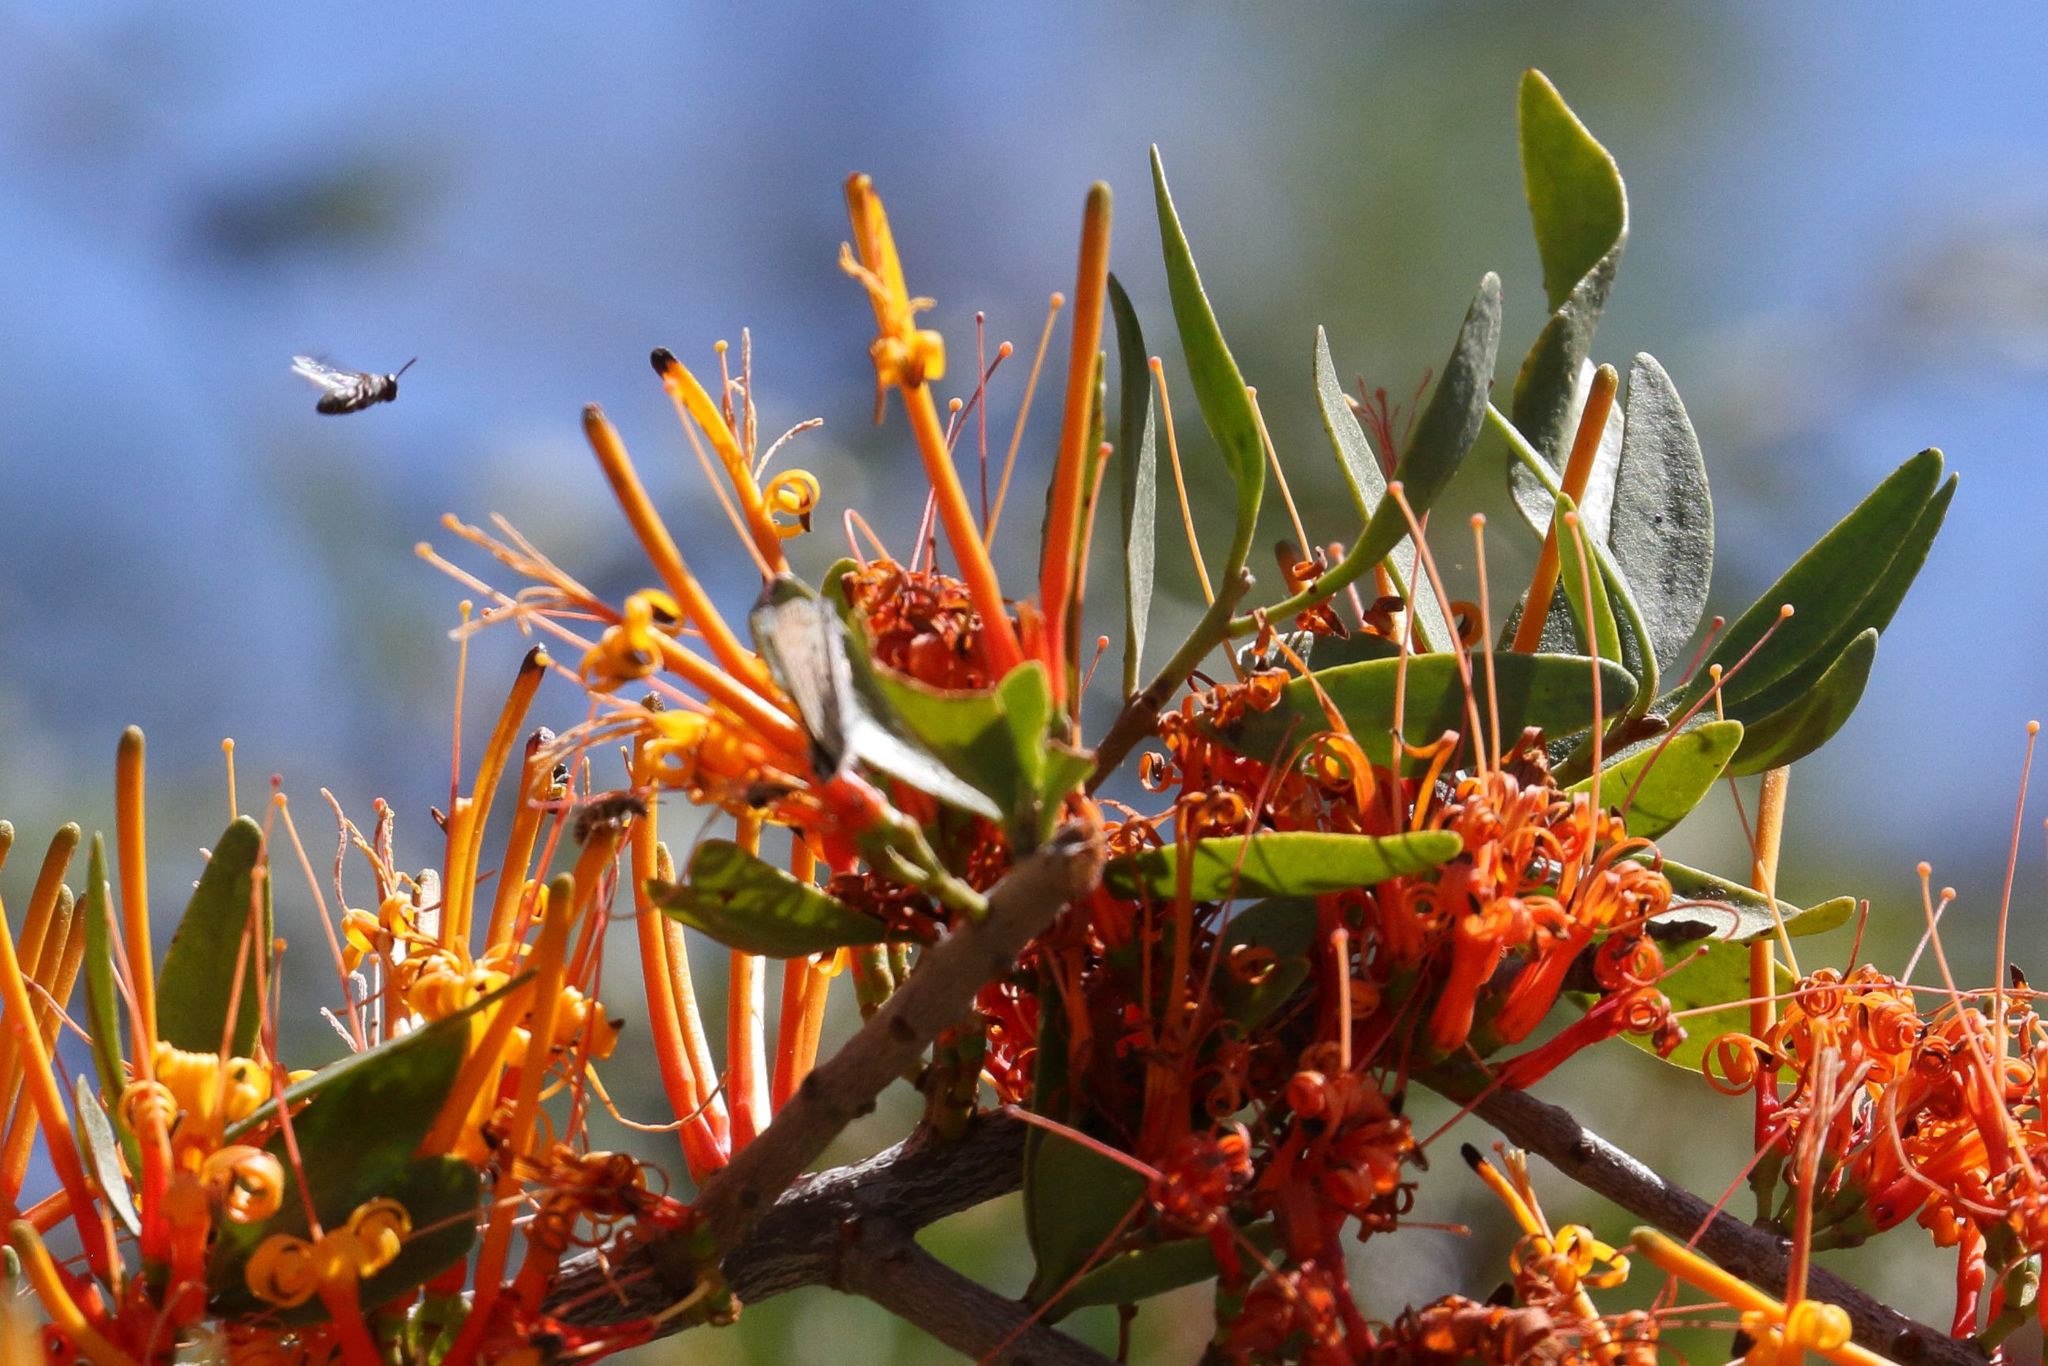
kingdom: Plantae
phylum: Tracheophyta
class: Magnoliopsida
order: Santalales
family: Loranthaceae
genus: Moquiniella
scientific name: Moquiniella rubra
